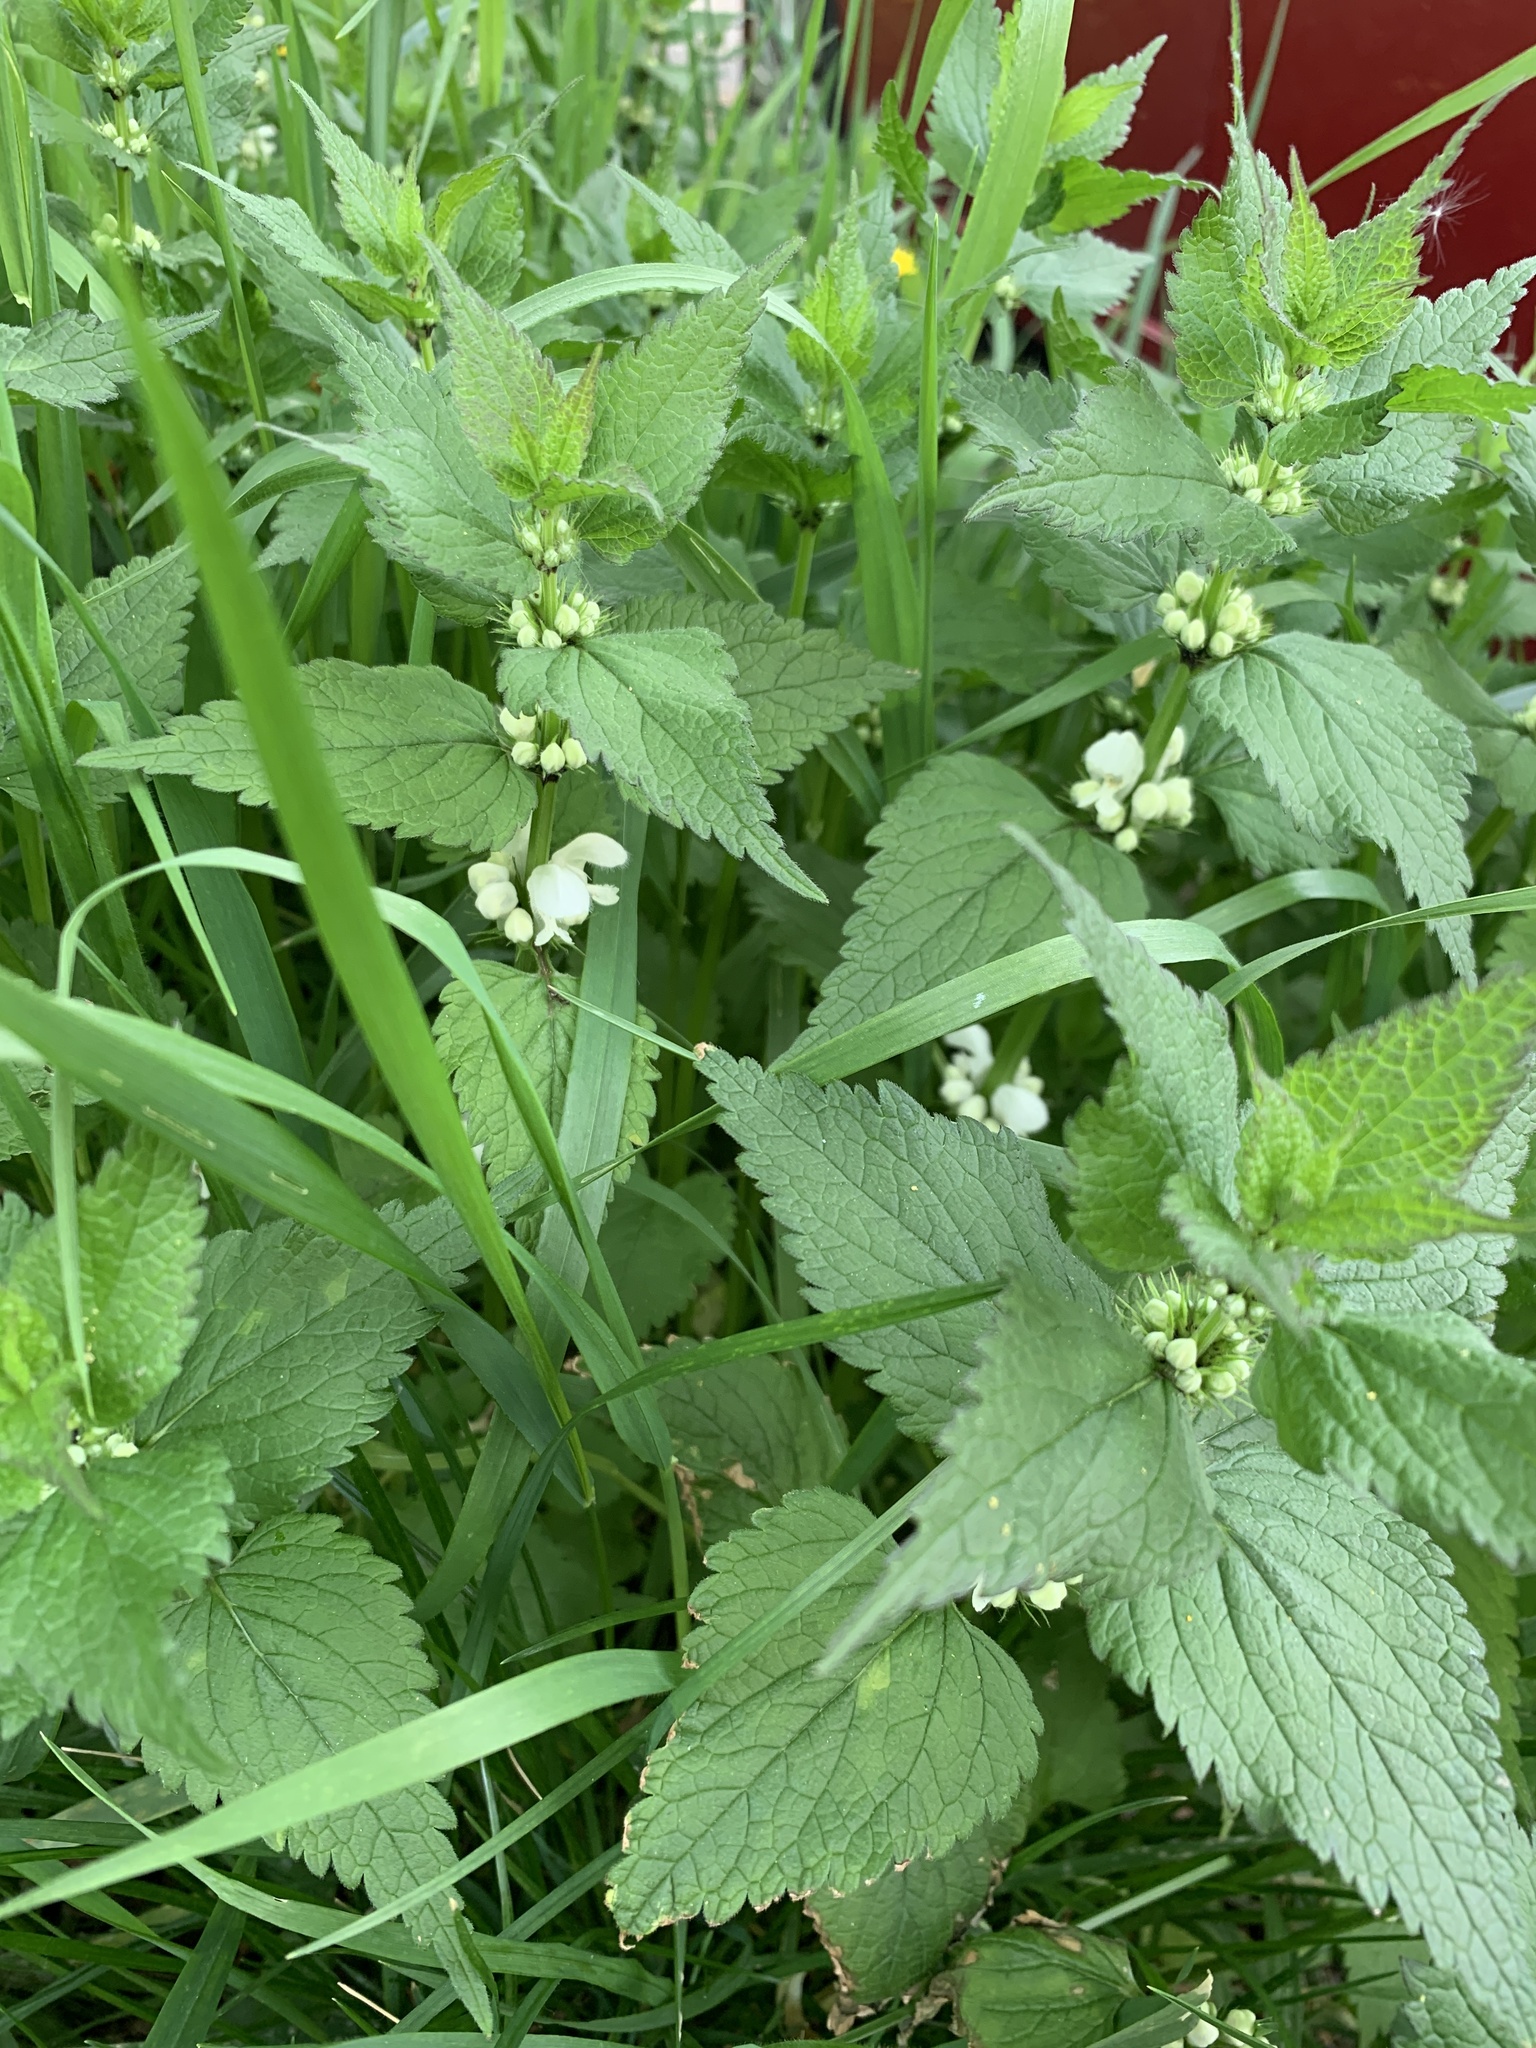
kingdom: Plantae
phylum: Tracheophyta
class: Magnoliopsida
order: Lamiales
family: Lamiaceae
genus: Lamium
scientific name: Lamium album
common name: White dead-nettle
